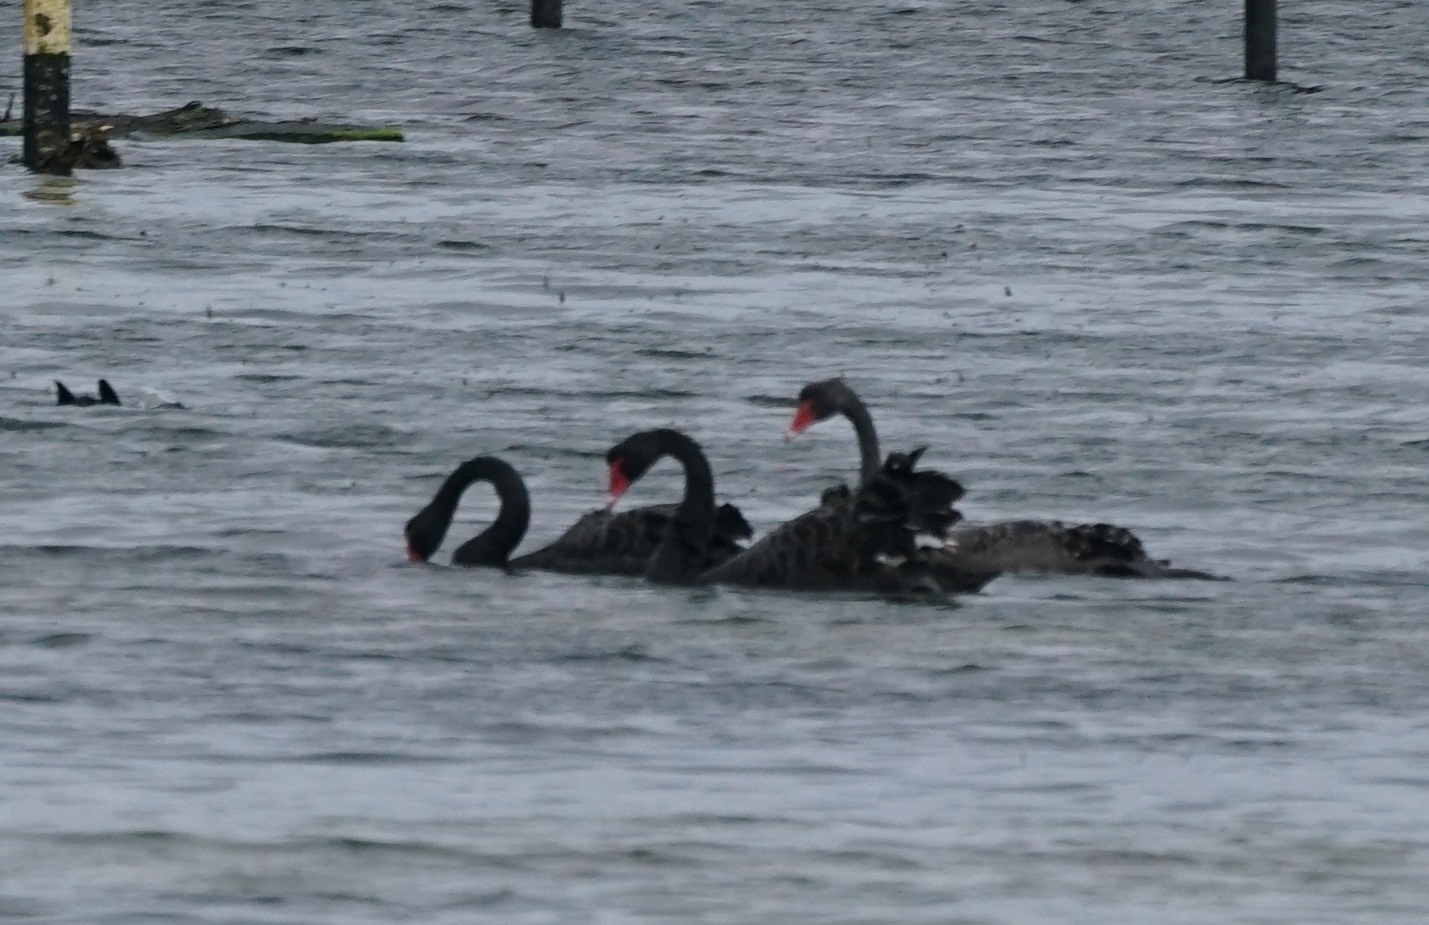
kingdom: Animalia
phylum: Chordata
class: Aves
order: Anseriformes
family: Anatidae
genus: Cygnus
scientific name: Cygnus atratus
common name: Black swan
